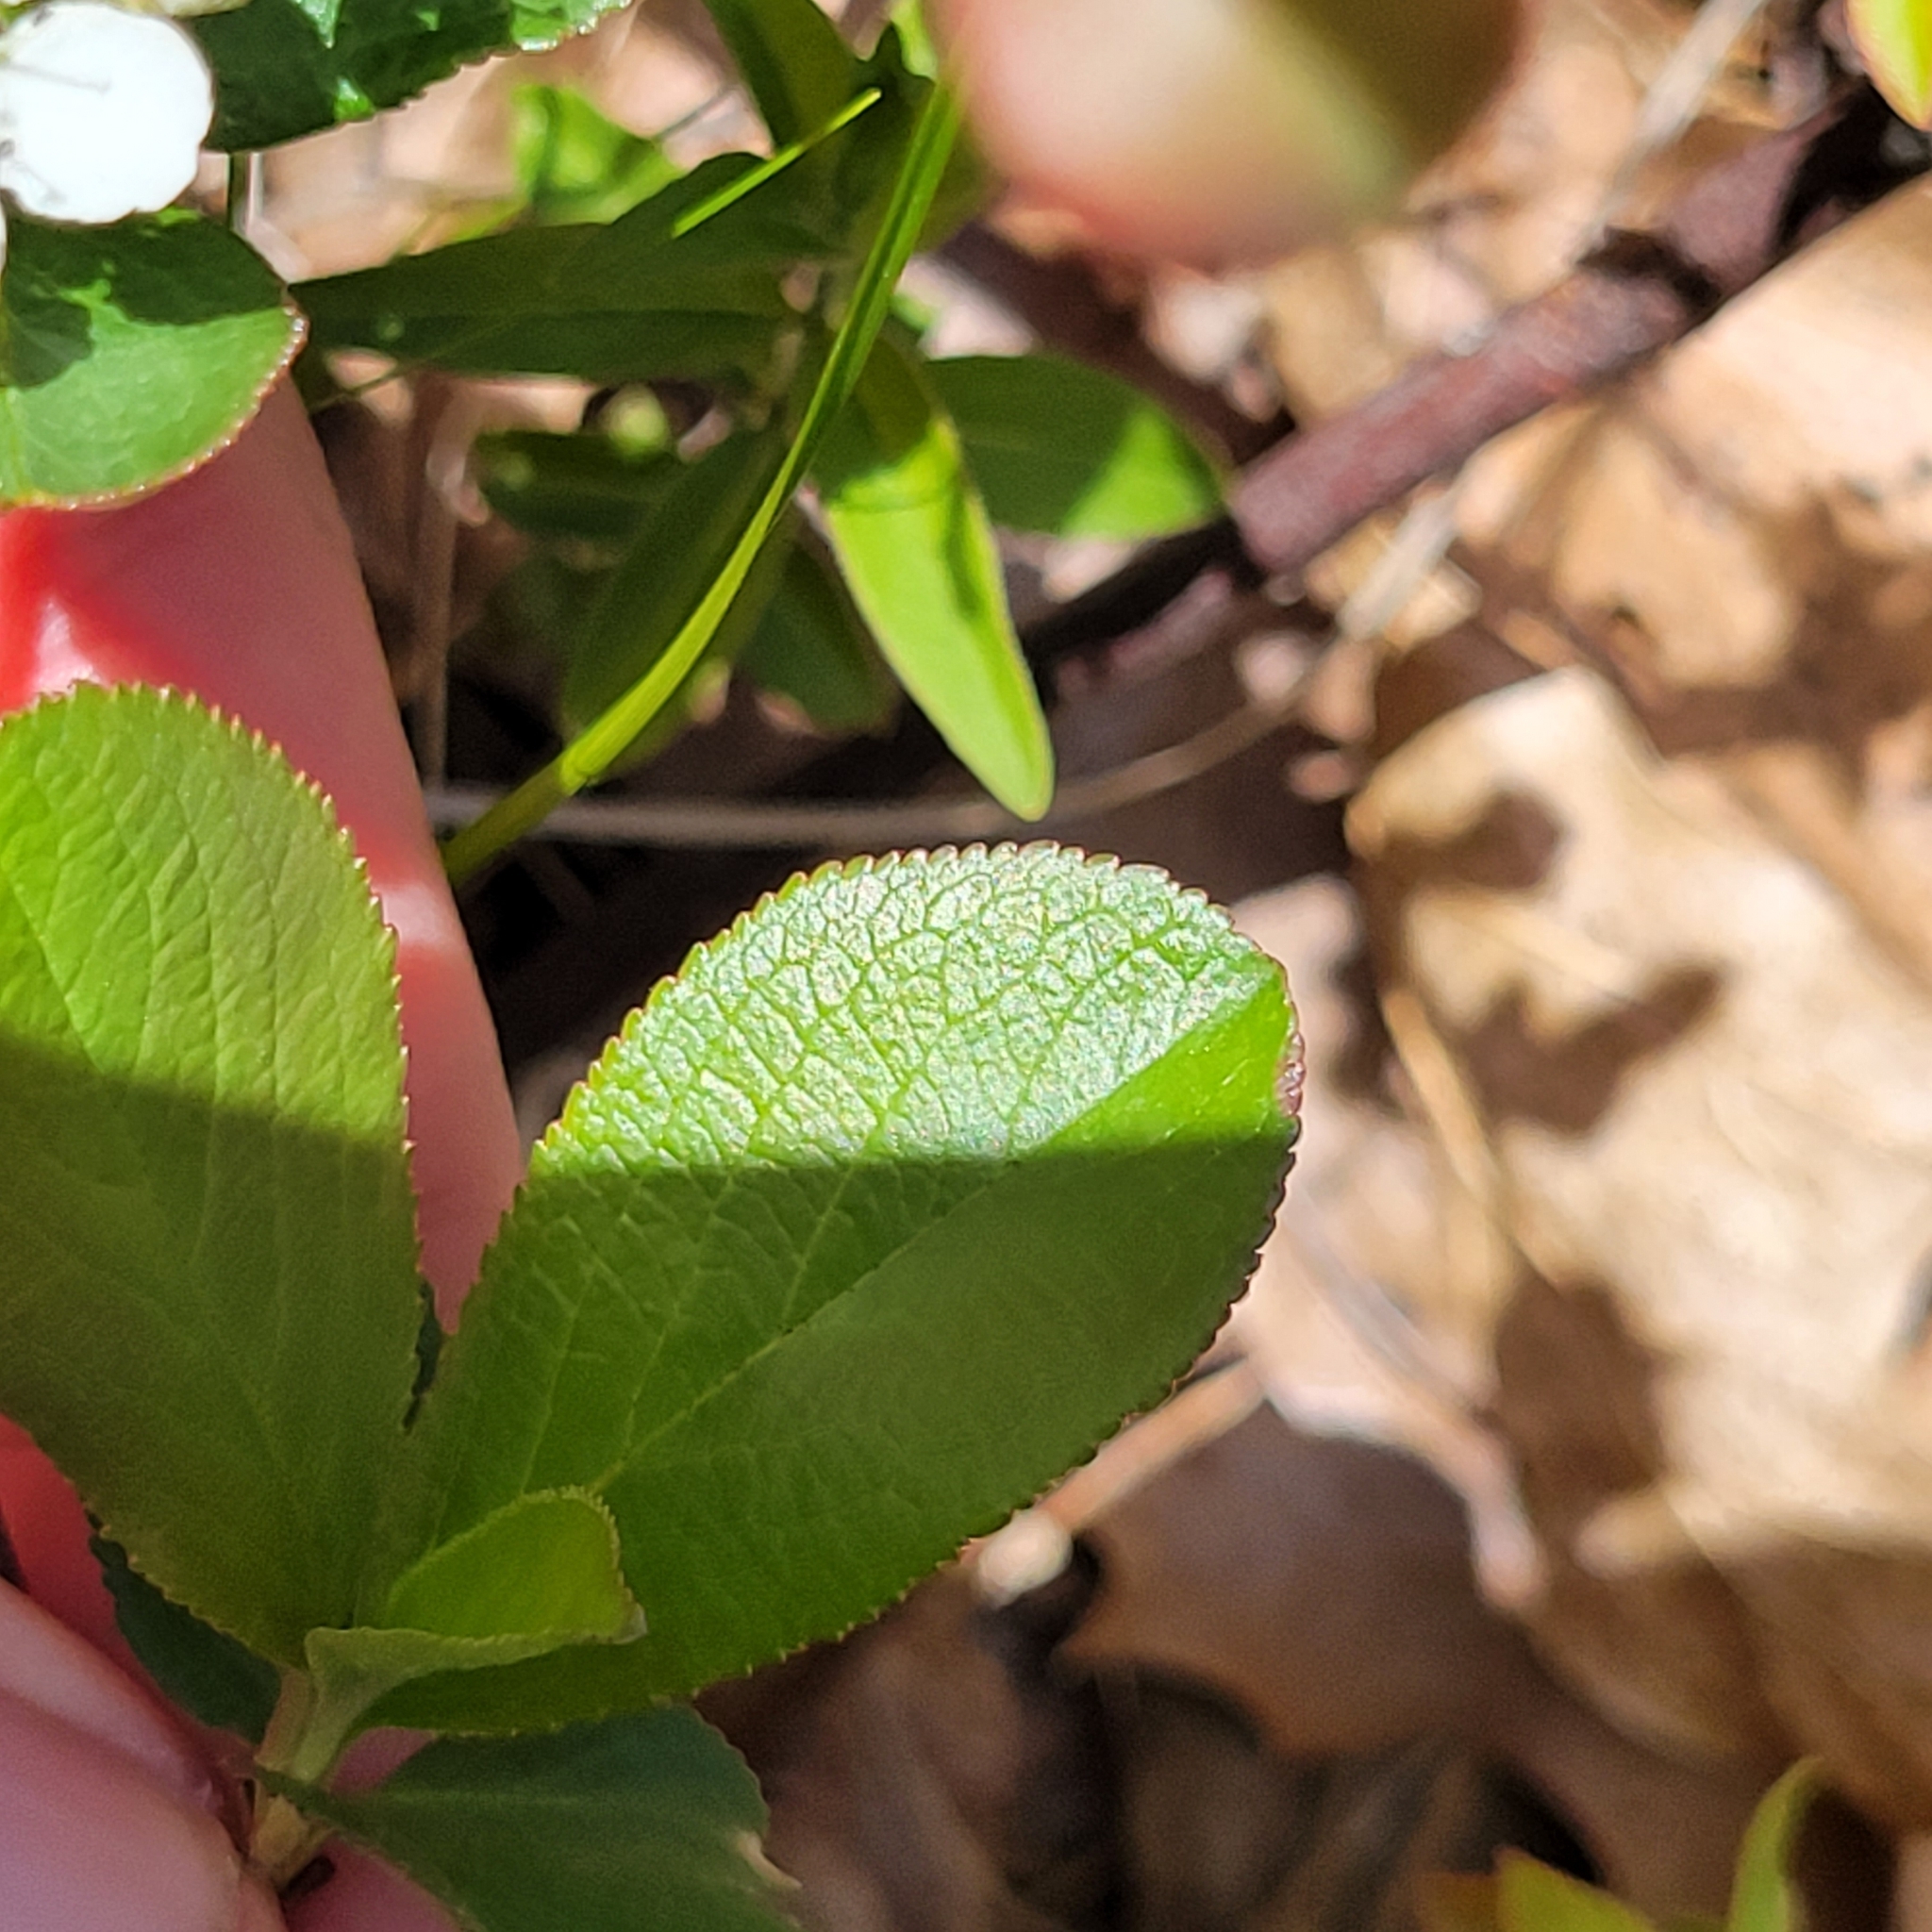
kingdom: Plantae
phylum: Tracheophyta
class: Magnoliopsida
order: Rosales
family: Rosaceae
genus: Aronia
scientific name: Aronia prunifolia
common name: Purple chokeberry
